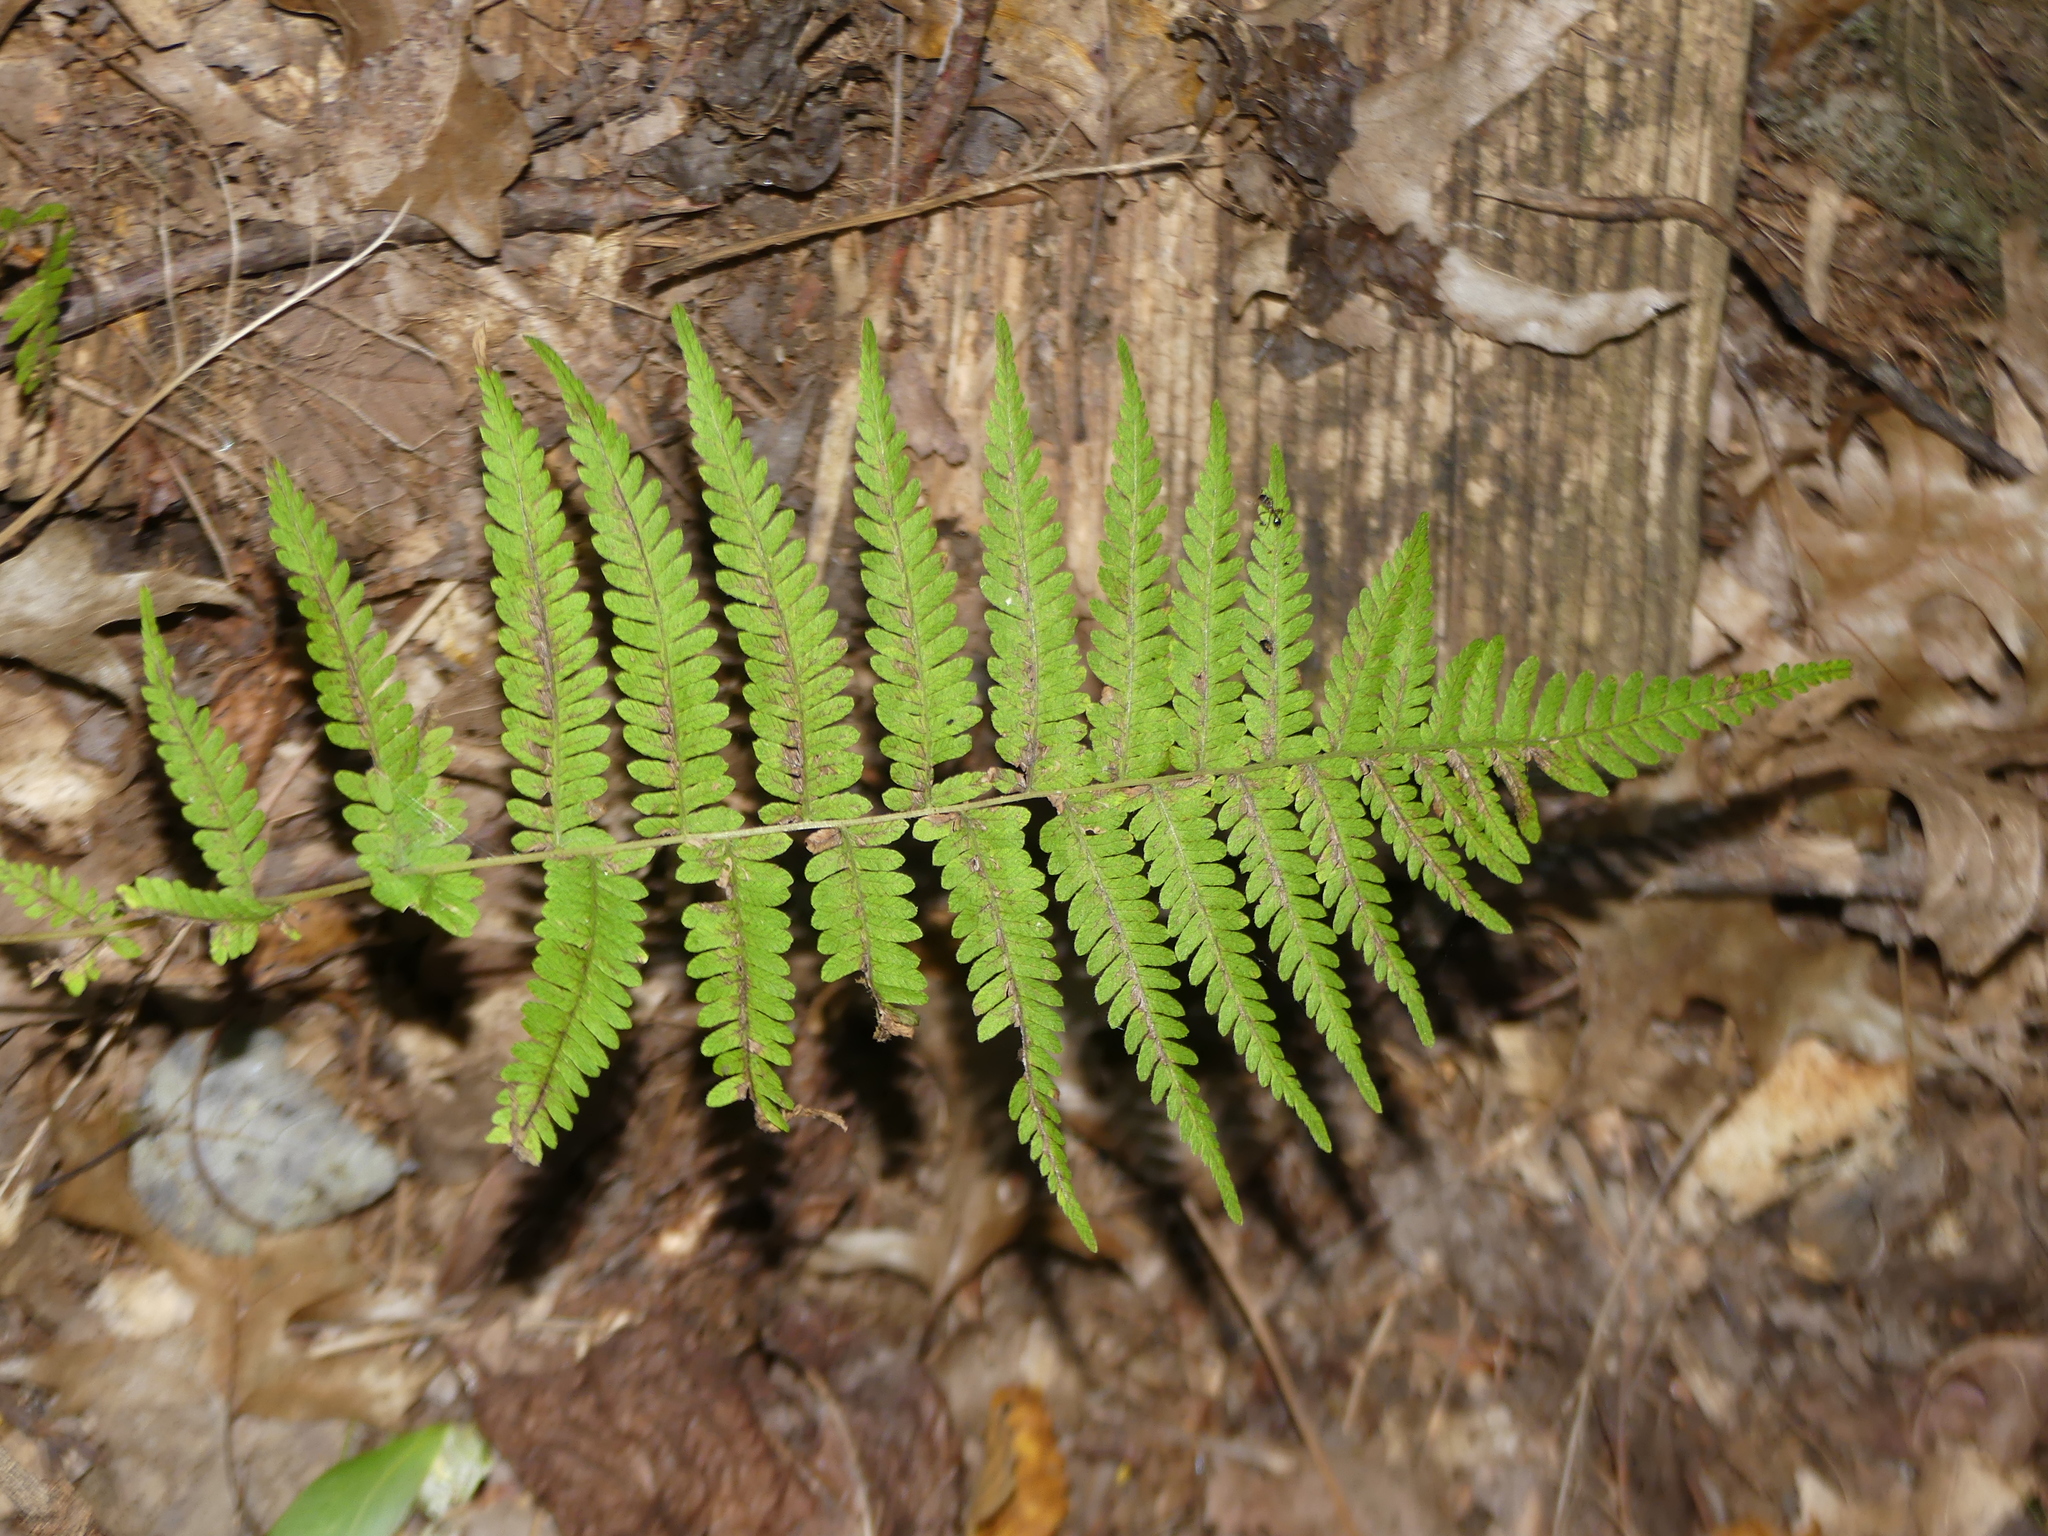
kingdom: Plantae
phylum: Tracheophyta
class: Polypodiopsida
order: Polypodiales
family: Thelypteridaceae
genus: Amauropelta
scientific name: Amauropelta noveboracensis
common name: New york fern
